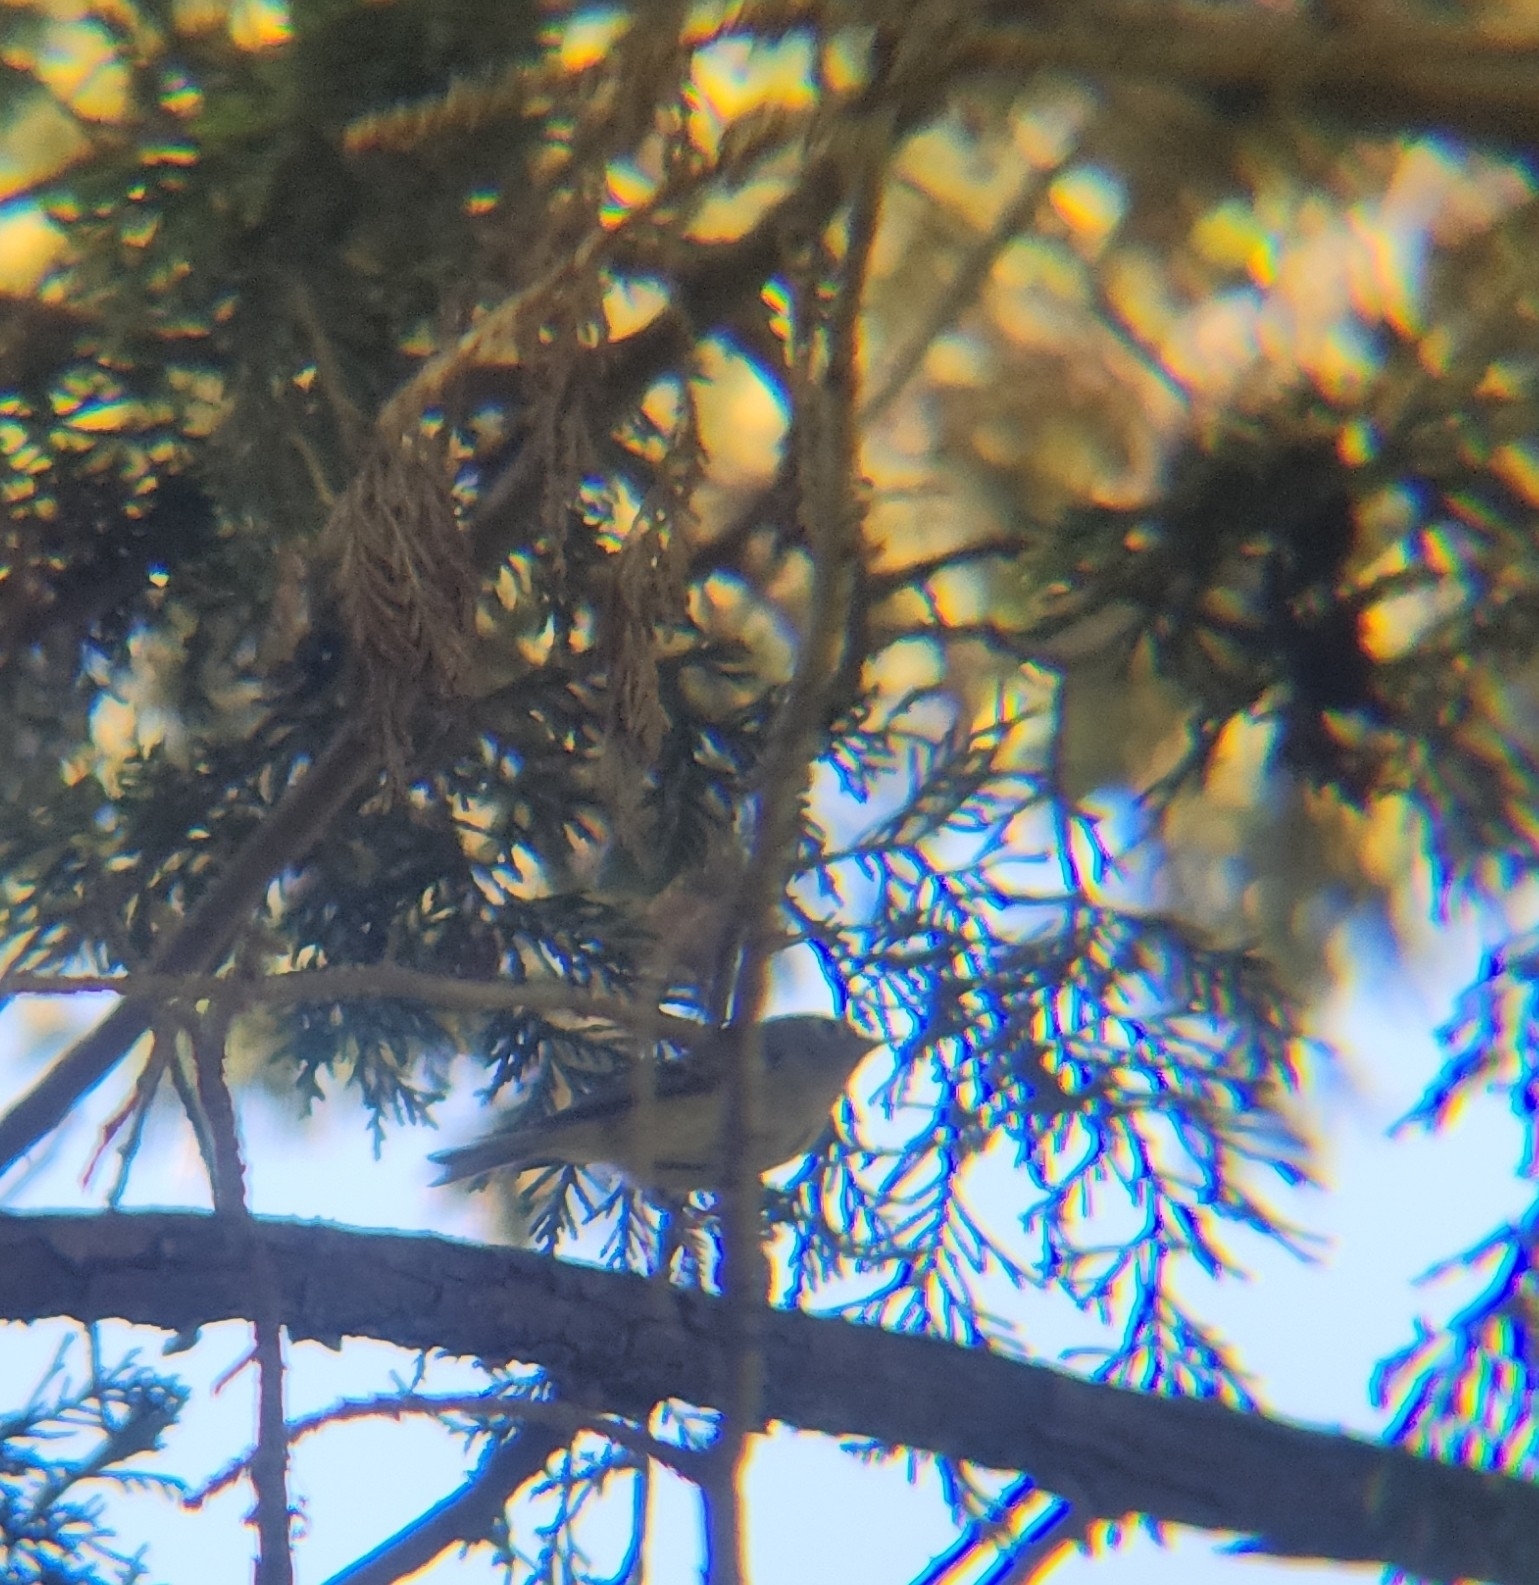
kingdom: Animalia
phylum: Chordata
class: Aves
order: Passeriformes
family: Regulidae
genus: Regulus
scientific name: Regulus calendula
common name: Ruby-crowned kinglet
